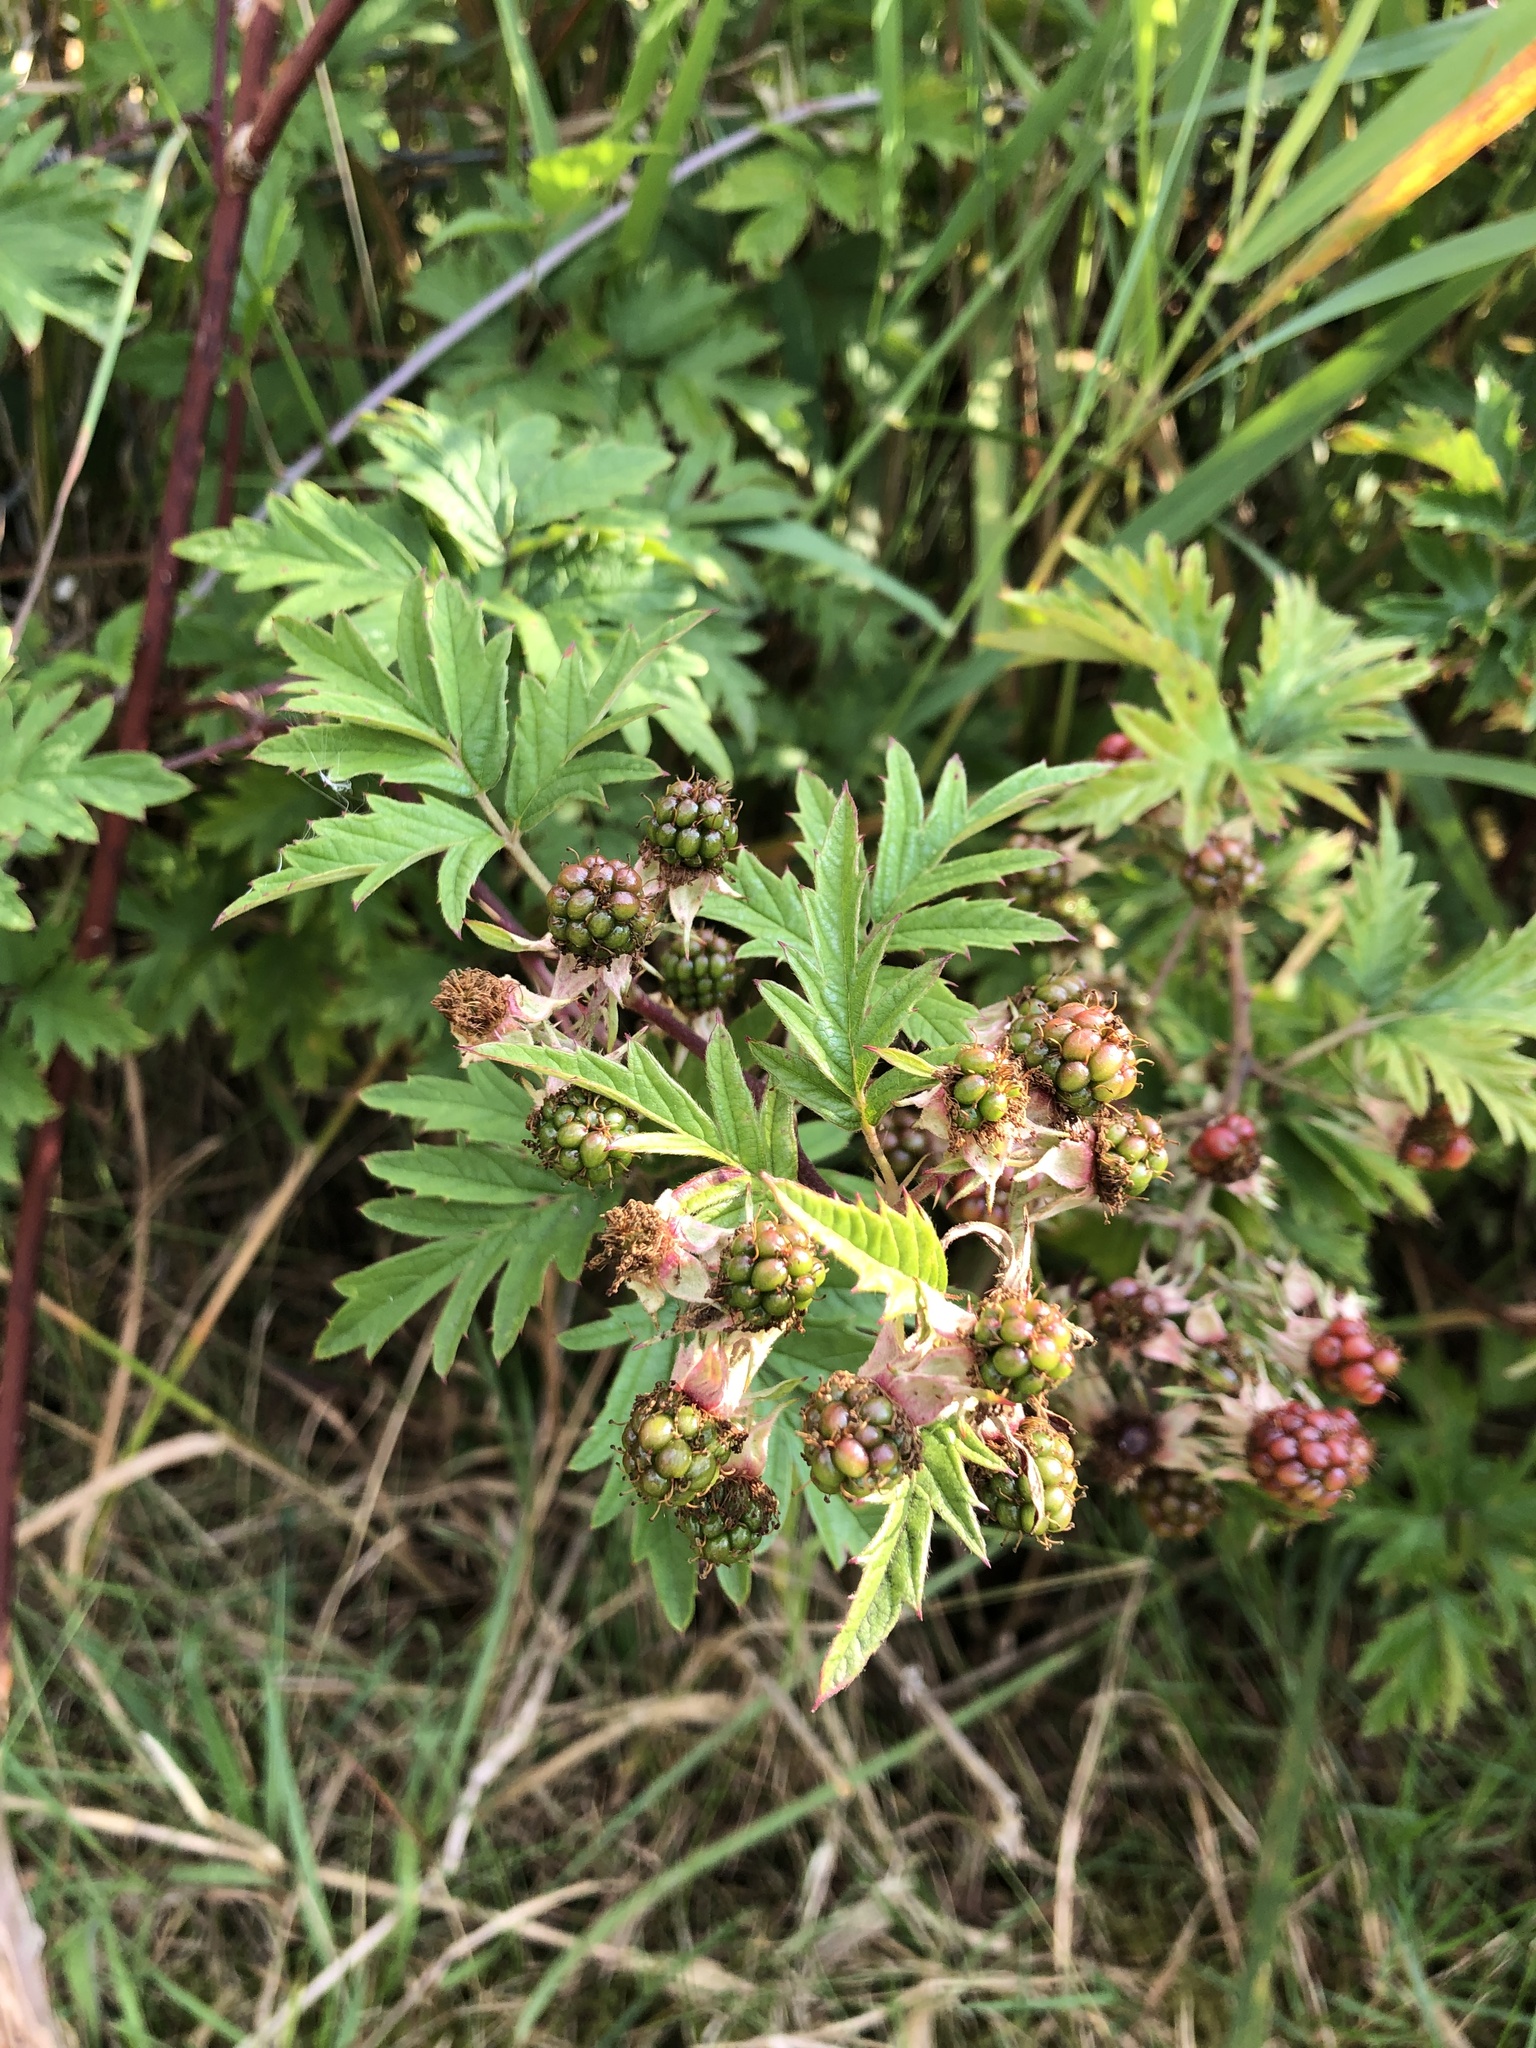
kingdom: Plantae
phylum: Tracheophyta
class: Magnoliopsida
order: Rosales
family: Rosaceae
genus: Rubus
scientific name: Rubus laciniatus
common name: Evergreen blackberry
